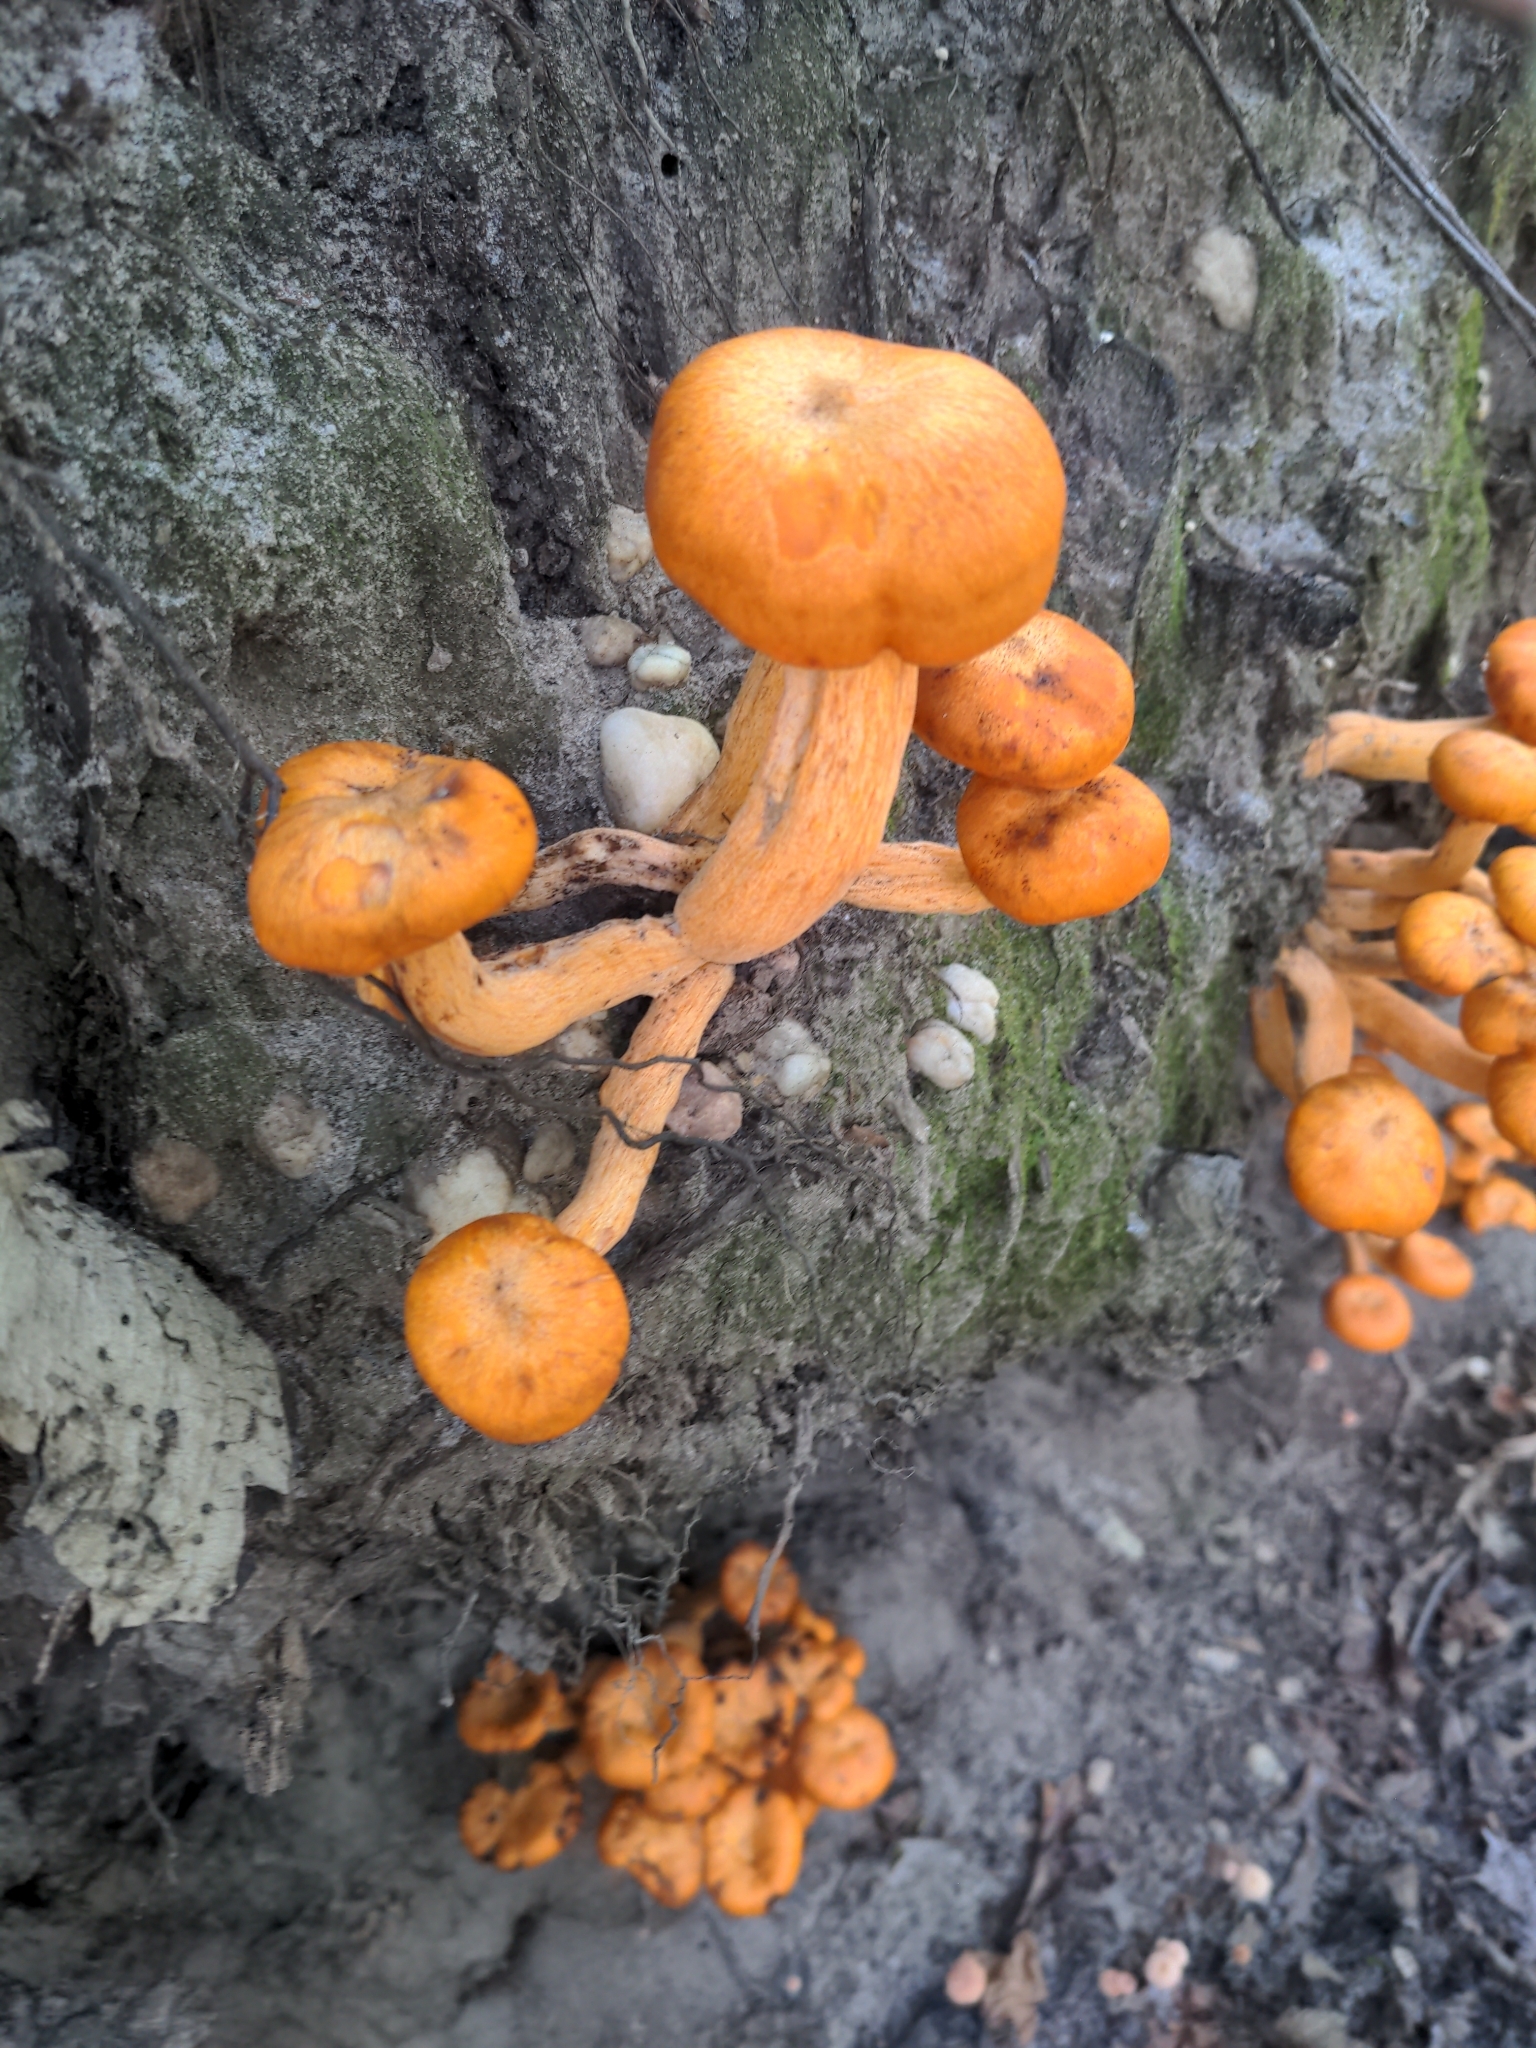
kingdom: Fungi
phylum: Basidiomycota
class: Agaricomycetes
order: Agaricales
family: Omphalotaceae
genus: Omphalotus
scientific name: Omphalotus illudens
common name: Jack o lantern
